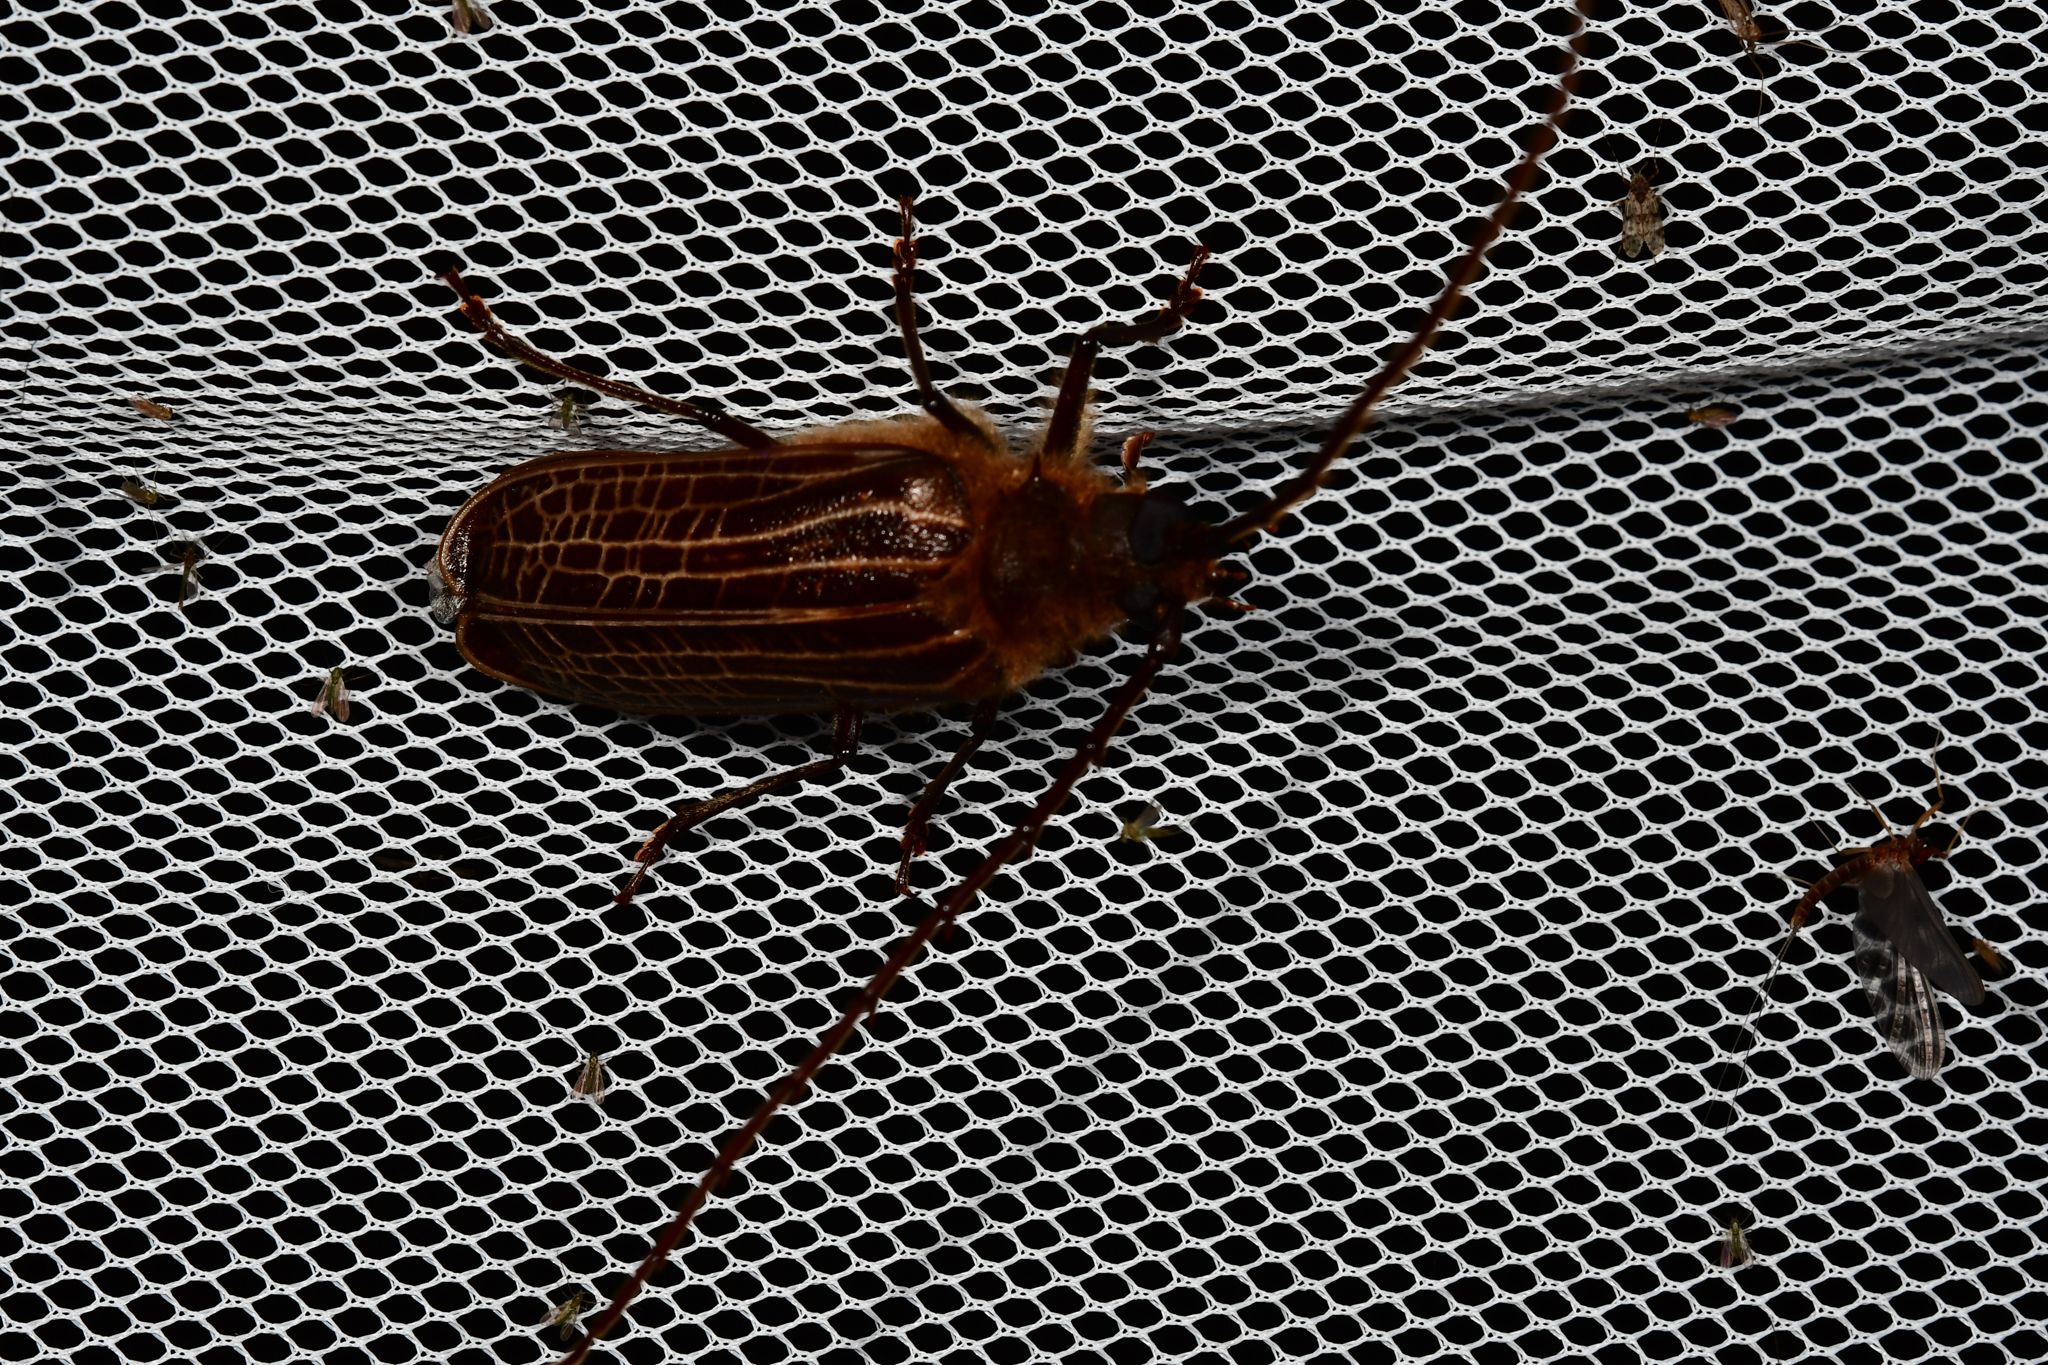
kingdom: Animalia
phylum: Arthropoda
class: Insecta
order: Coleoptera
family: Cerambycidae
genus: Prionoplus
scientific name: Prionoplus reticularis
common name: Huhu beetle
